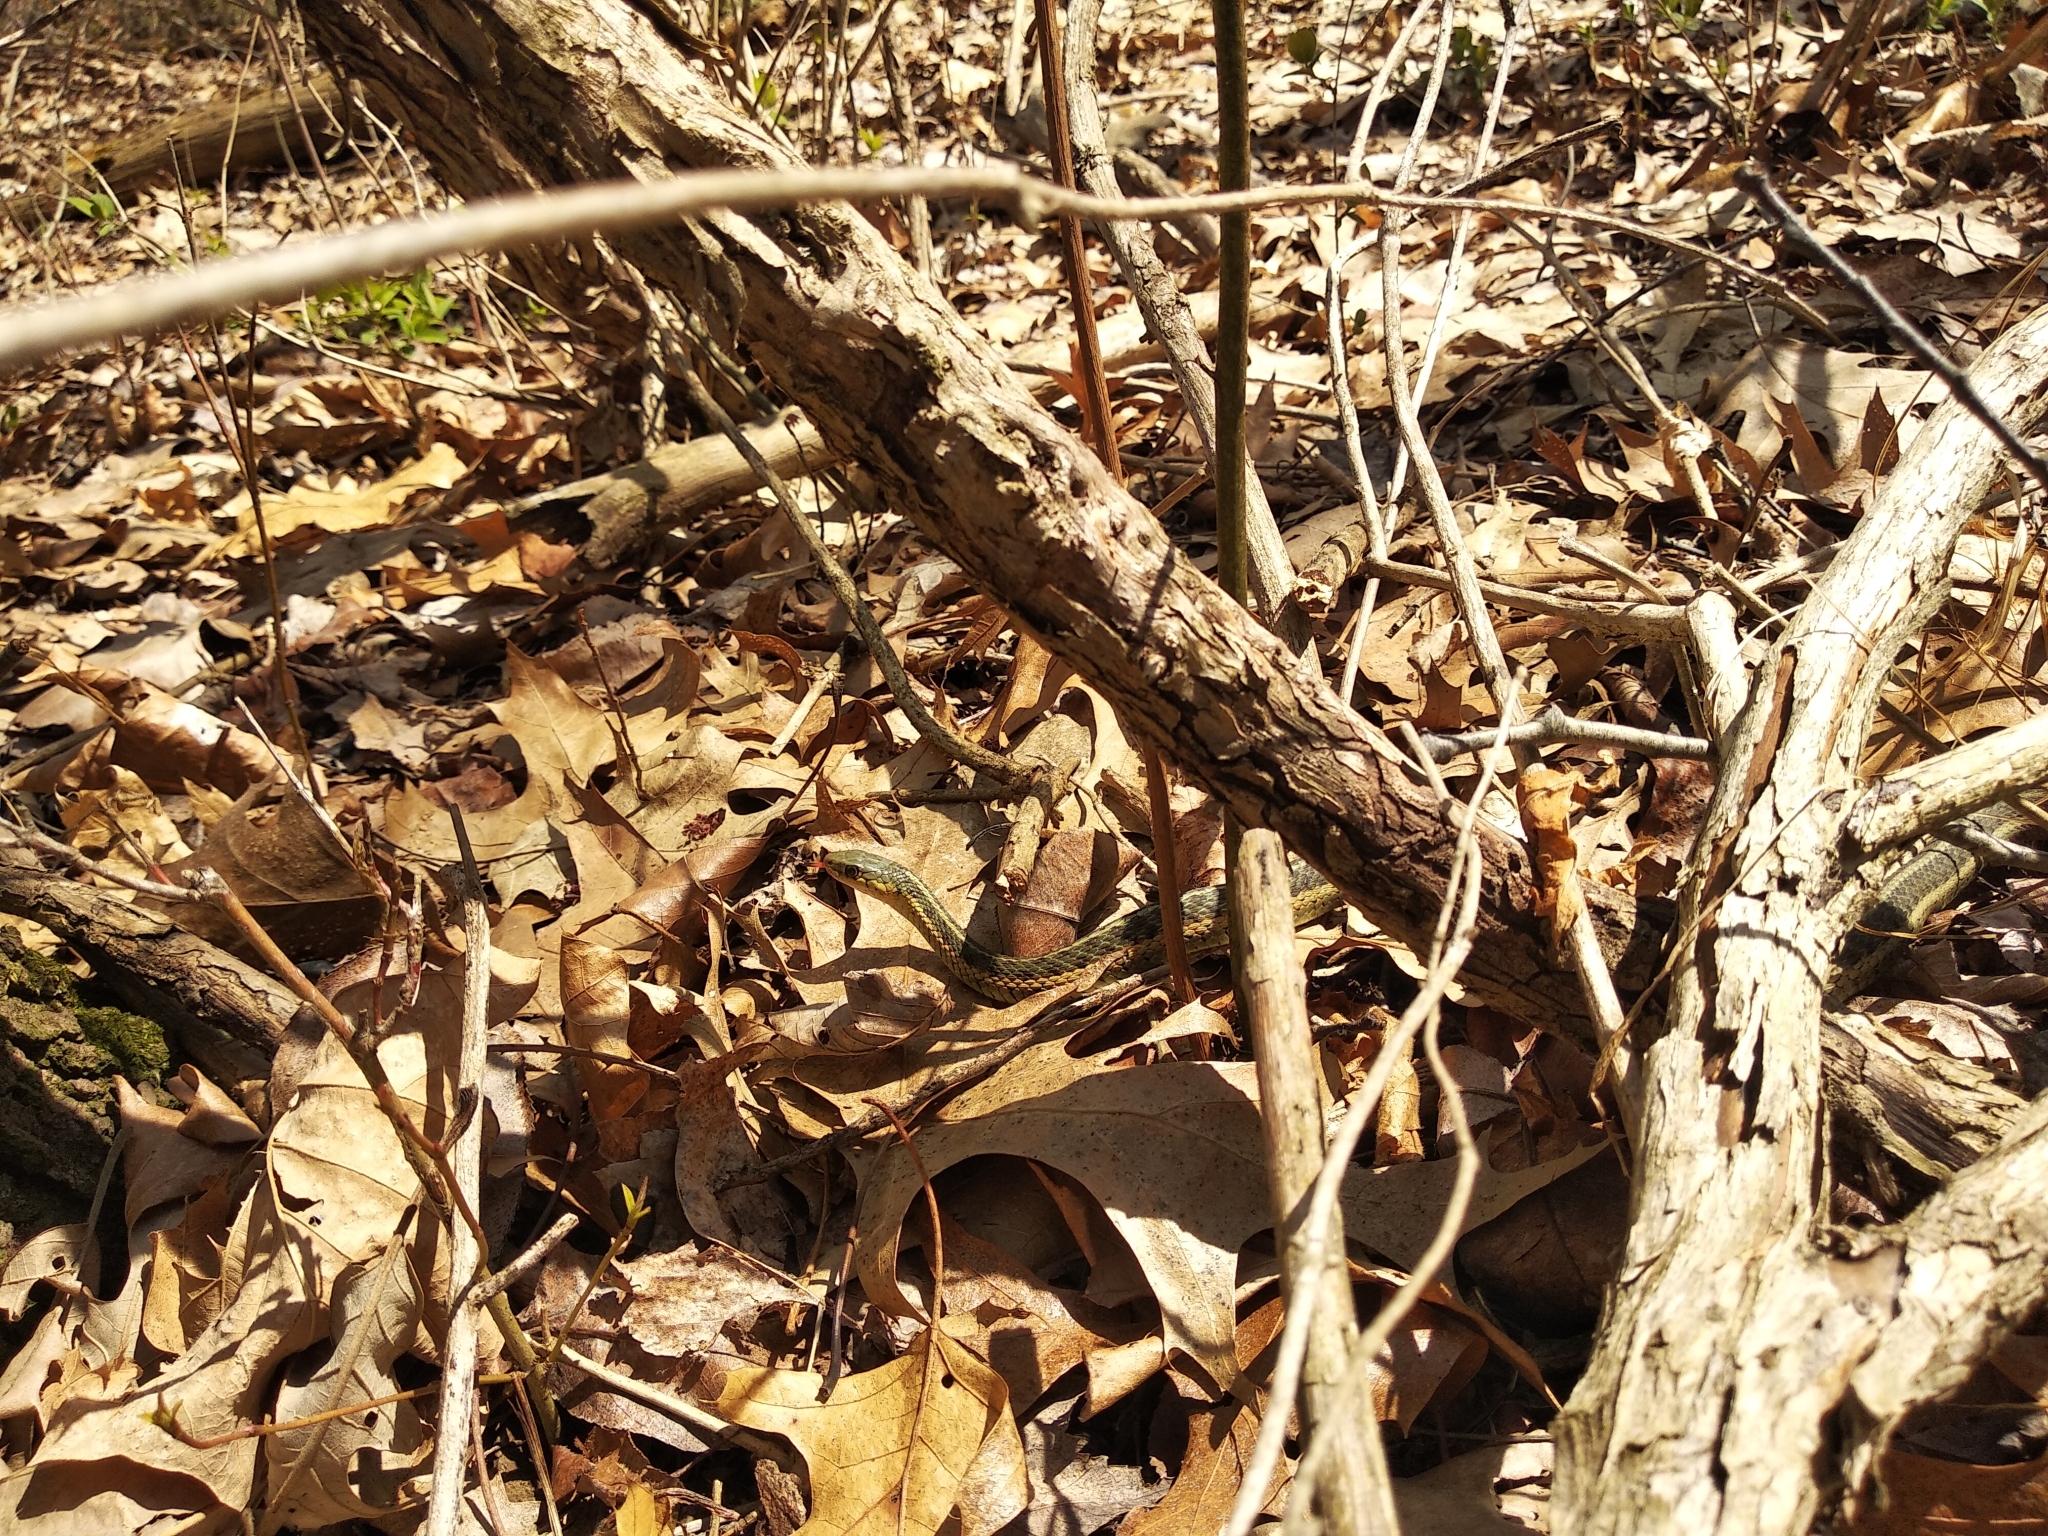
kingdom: Animalia
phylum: Chordata
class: Squamata
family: Colubridae
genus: Thamnophis
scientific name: Thamnophis sirtalis
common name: Common garter snake
